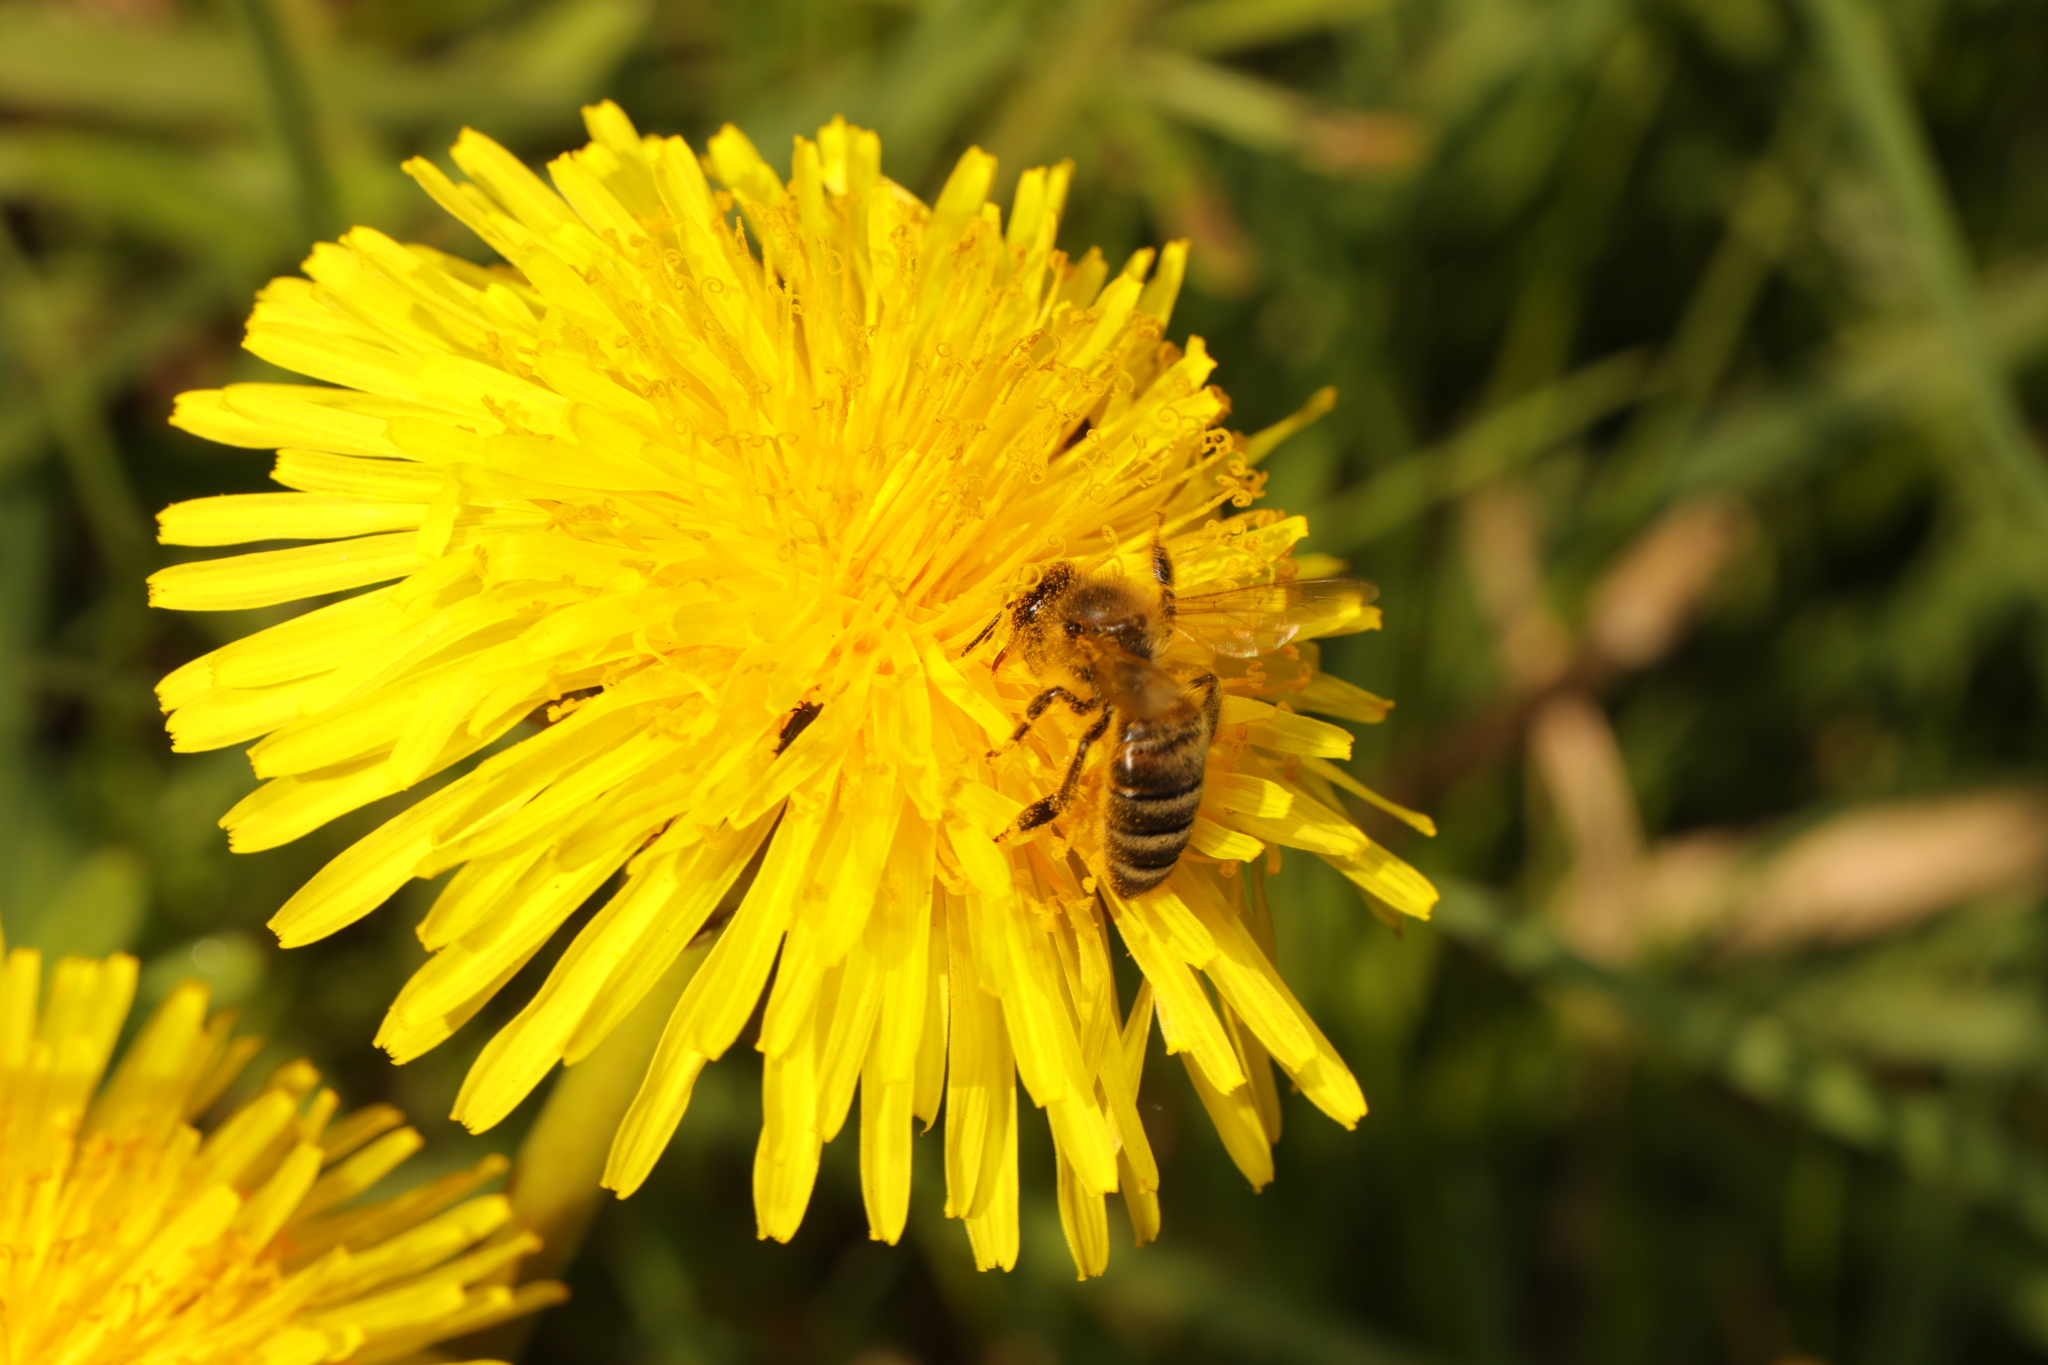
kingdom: Animalia
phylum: Arthropoda
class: Insecta
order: Hymenoptera
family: Apidae
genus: Apis
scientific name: Apis mellifera
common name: Honey bee
